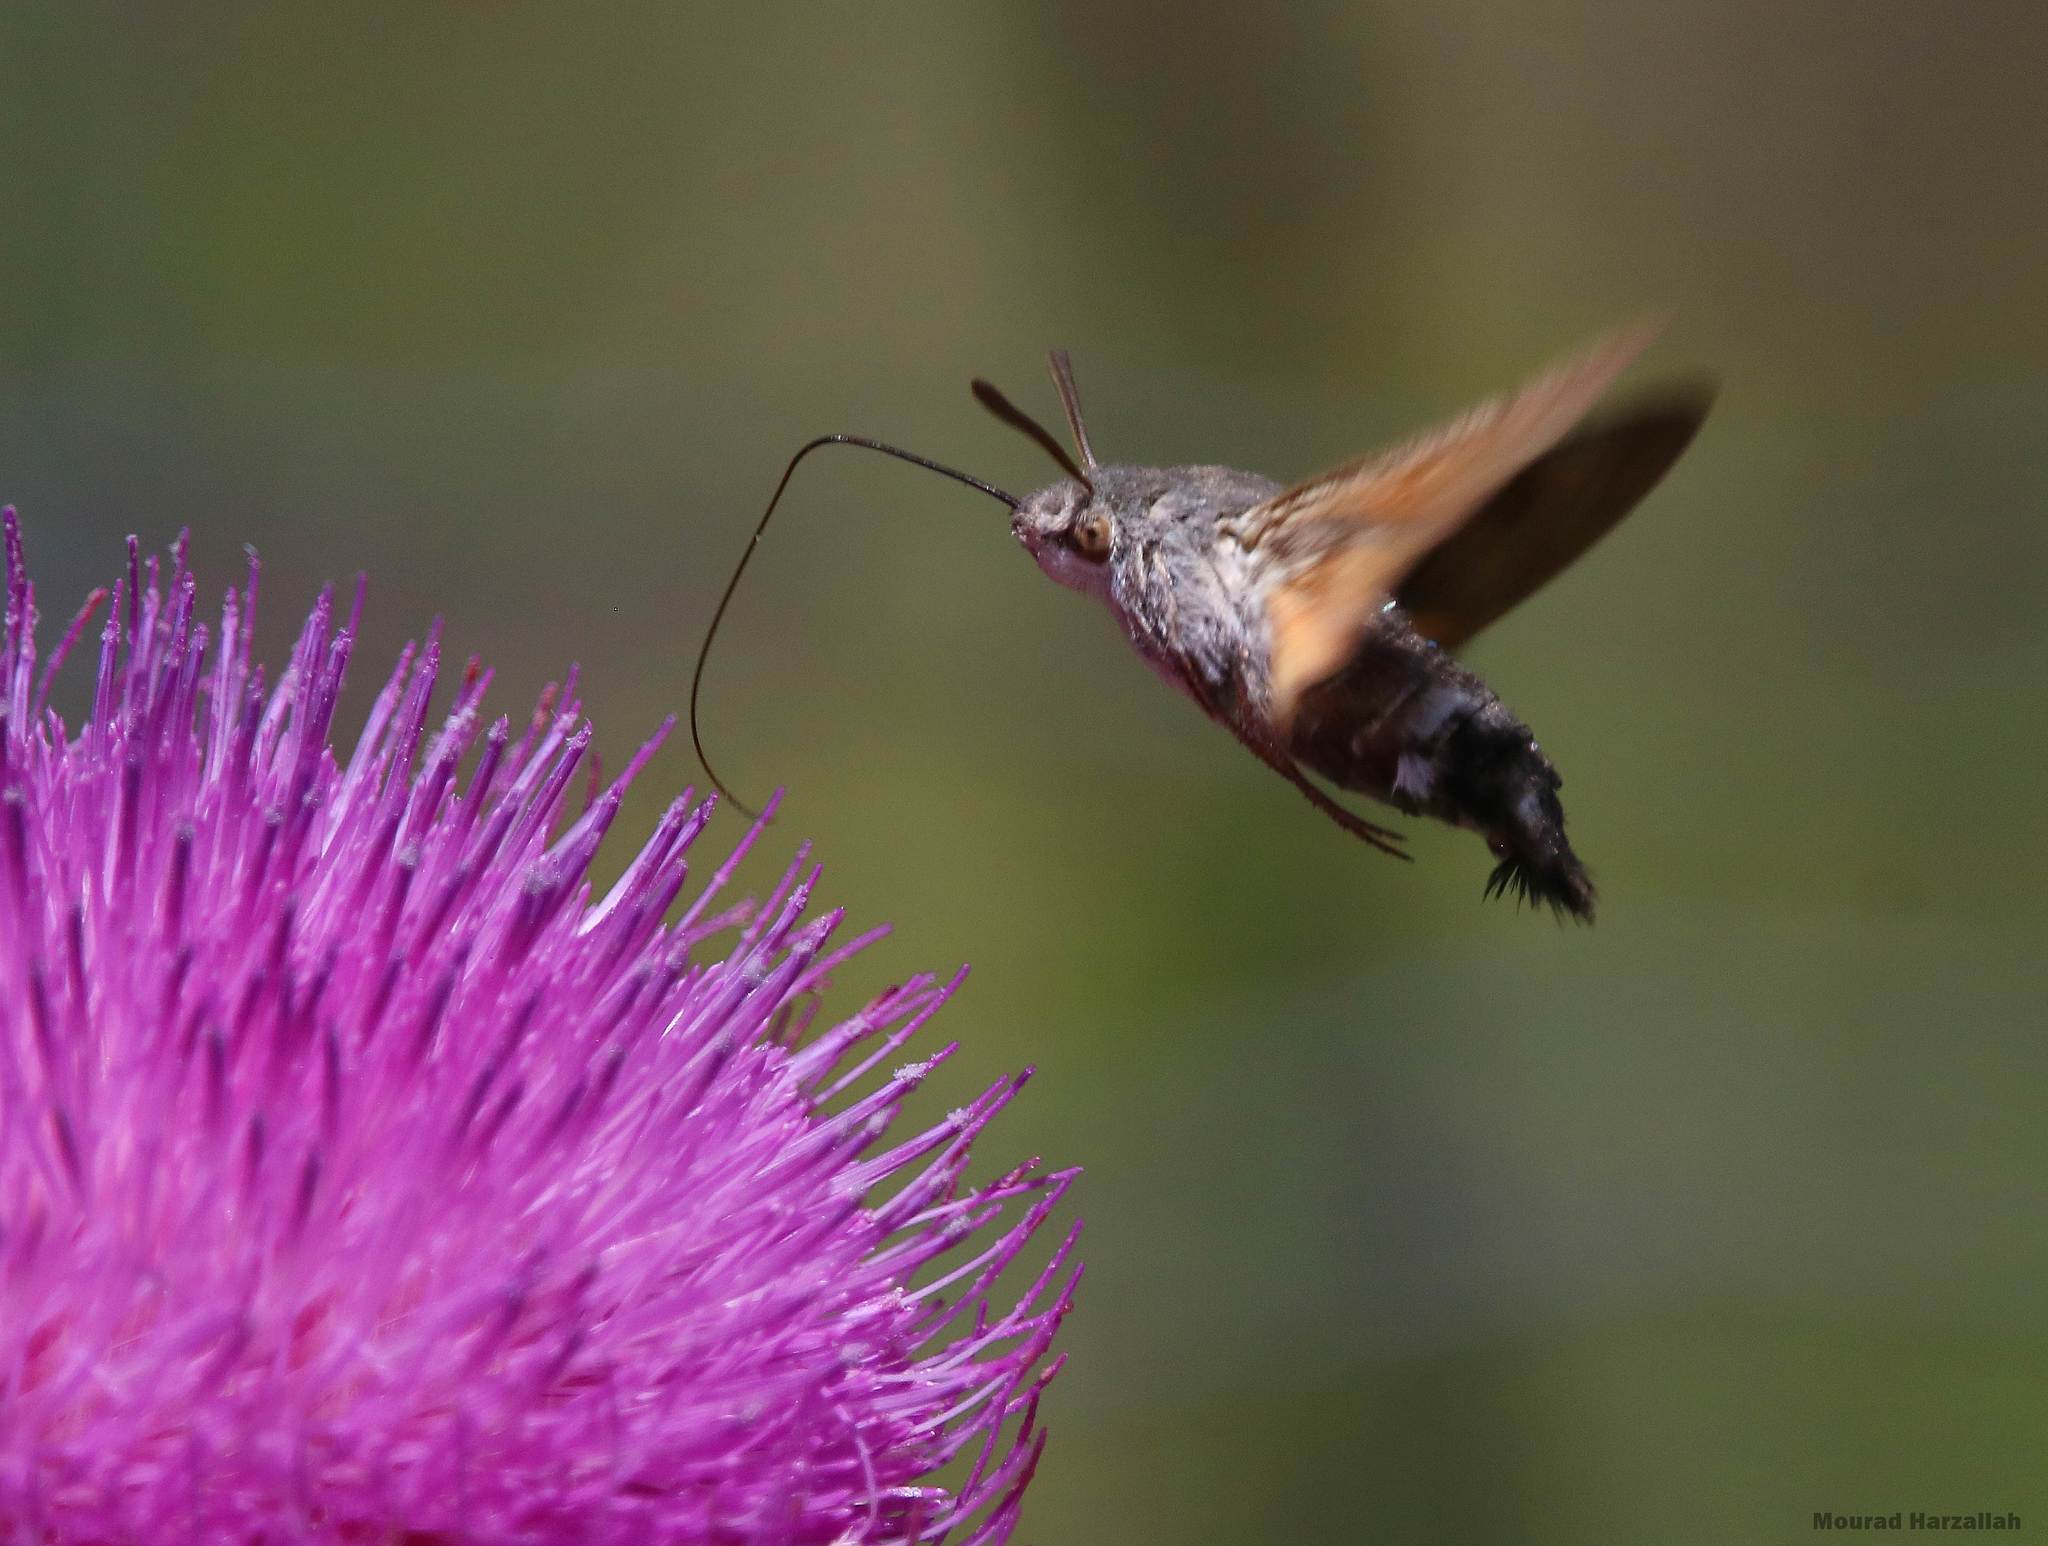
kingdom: Animalia
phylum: Arthropoda
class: Insecta
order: Lepidoptera
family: Sphingidae
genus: Macroglossum
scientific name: Macroglossum stellatarum
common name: Humming-bird hawk-moth
